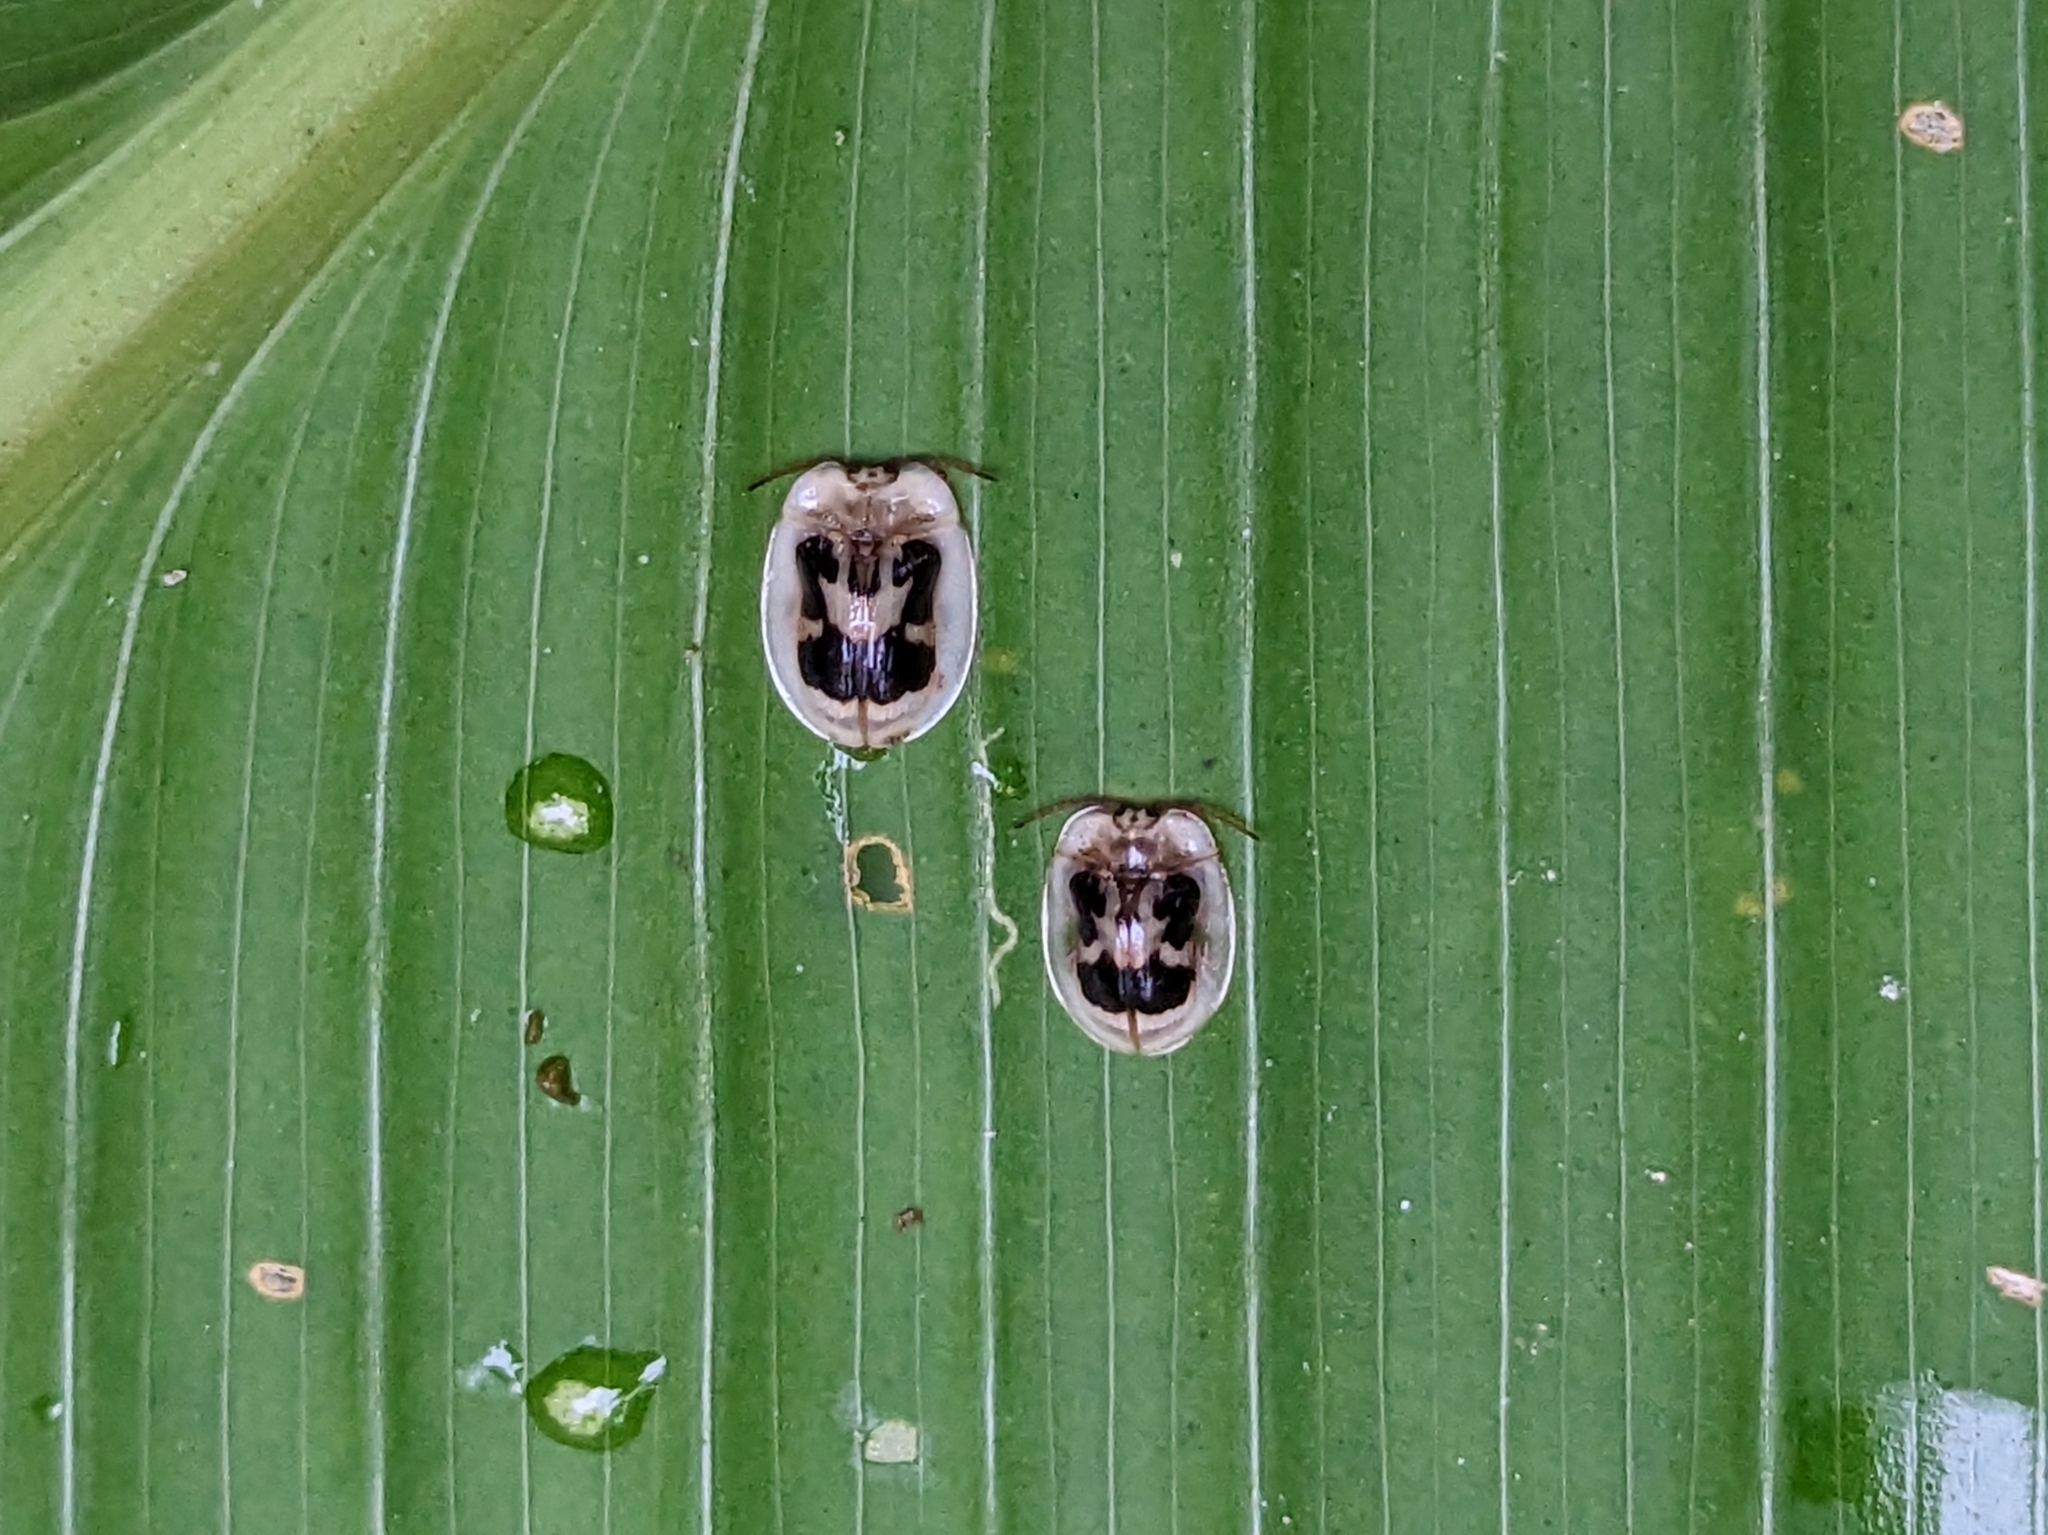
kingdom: Animalia
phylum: Arthropoda
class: Insecta
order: Coleoptera
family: Chrysomelidae
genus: Aslamidium
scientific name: Aslamidium impurum
